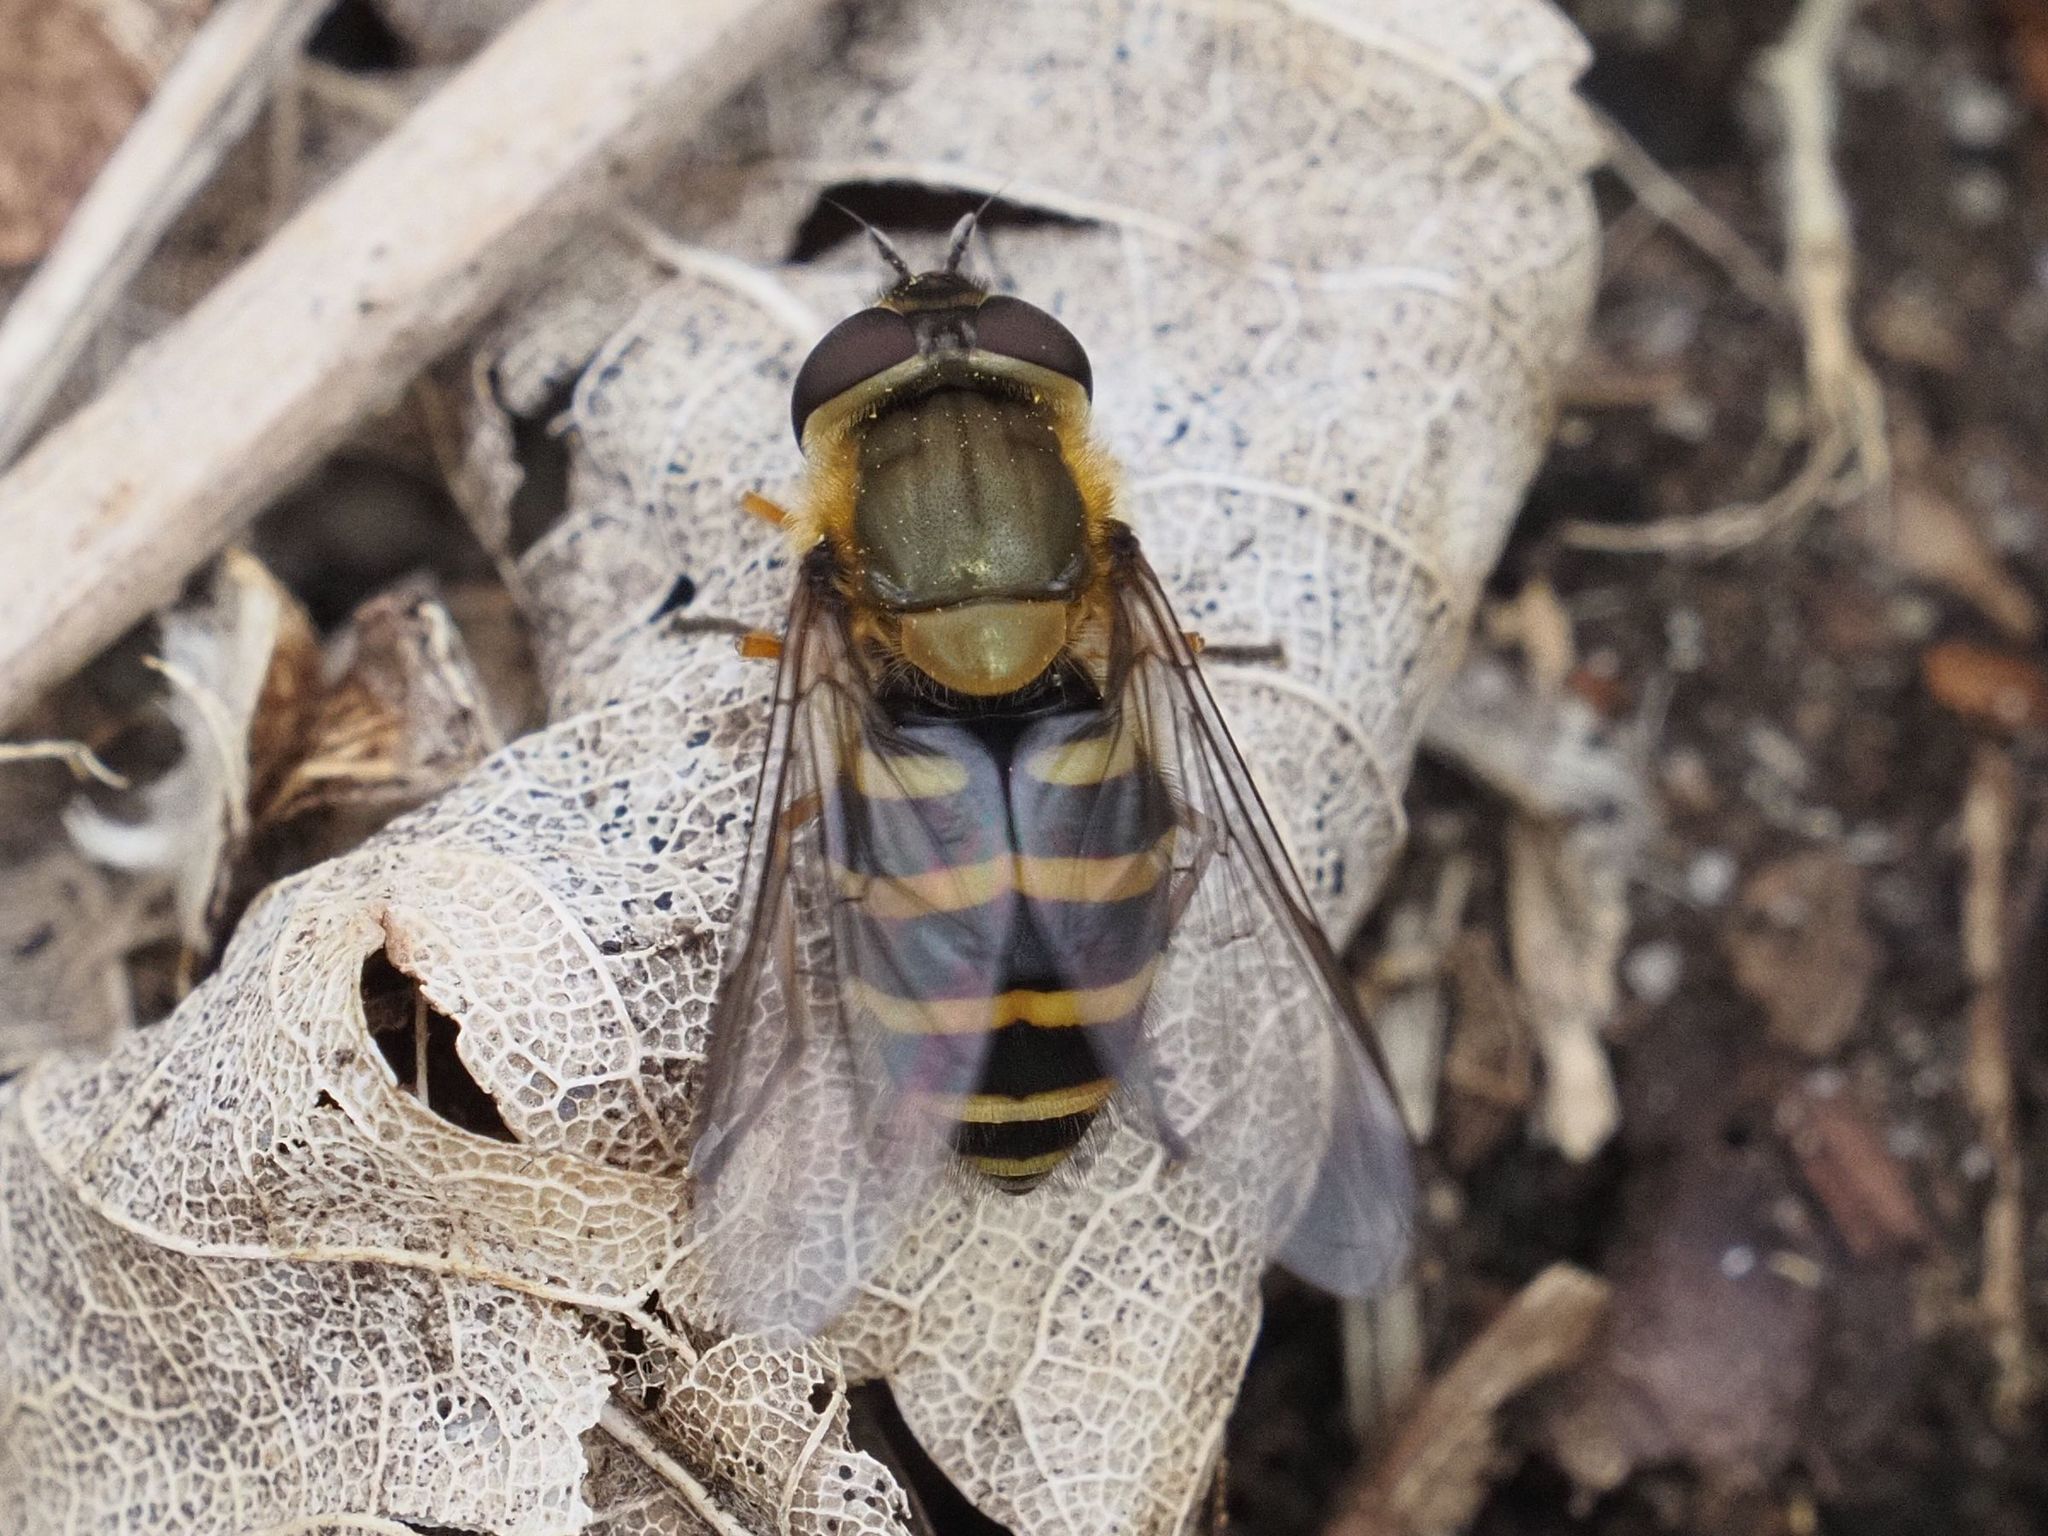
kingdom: Animalia
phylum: Arthropoda
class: Insecta
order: Diptera
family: Syrphidae
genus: Syrphus
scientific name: Syrphus torvus
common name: Hairy-eyed flower fly
